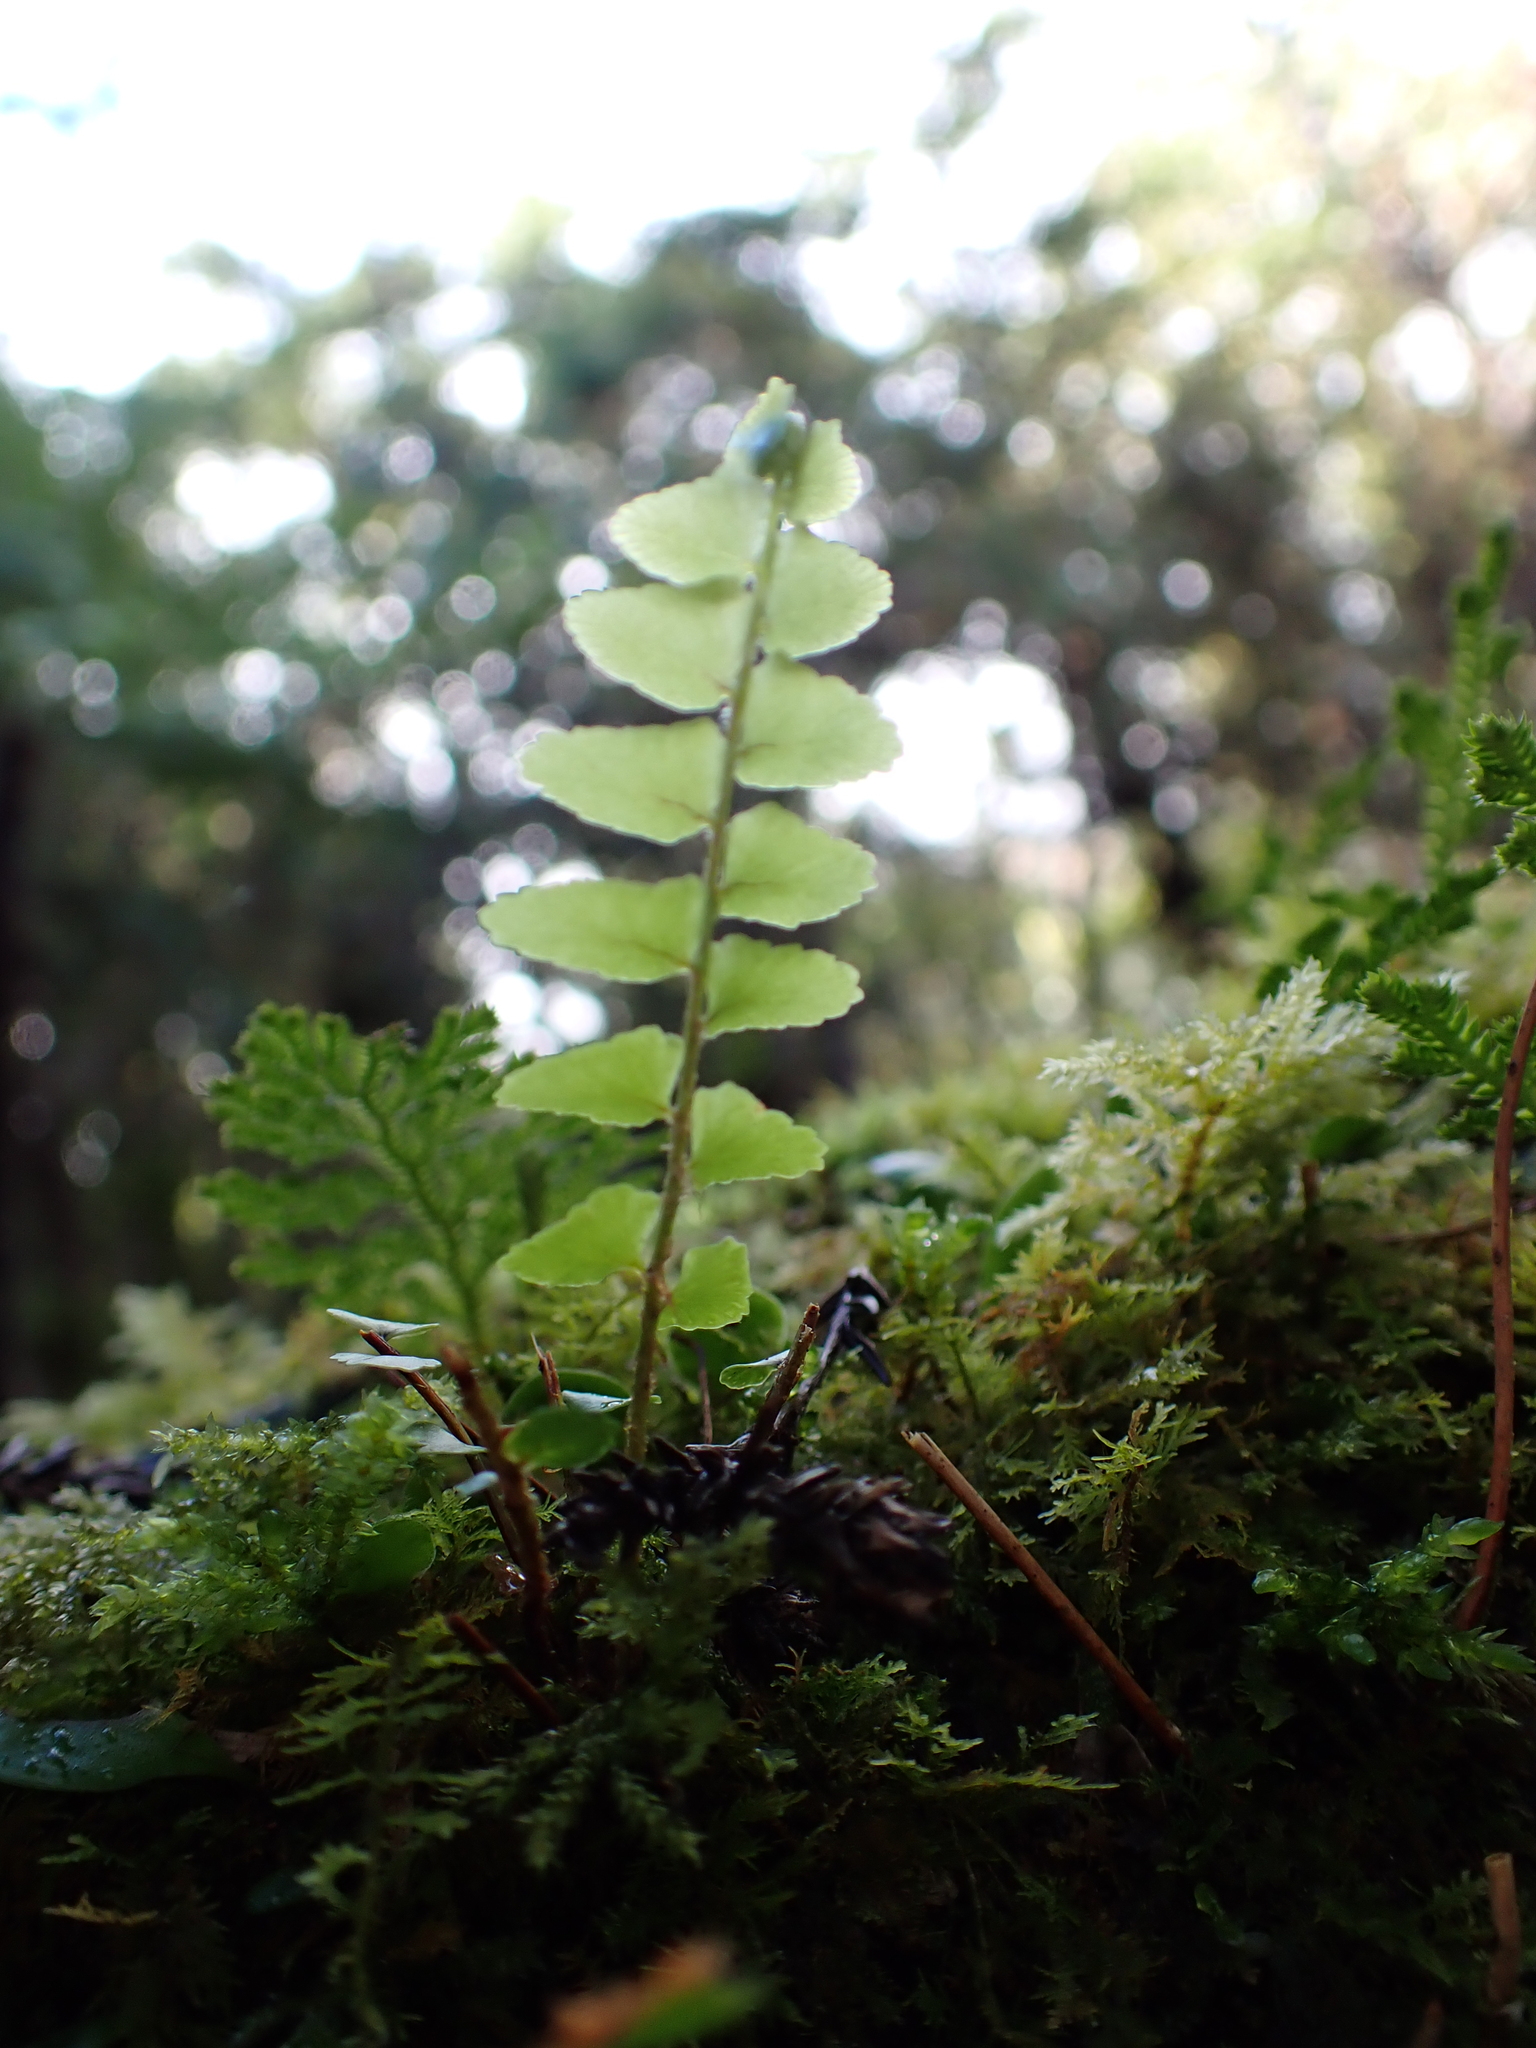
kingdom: Plantae
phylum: Tracheophyta
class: Polypodiopsida
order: Polypodiales
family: Nephrolepidaceae
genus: Nephrolepis
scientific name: Nephrolepis cordifolia
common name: Narrow swordfern
